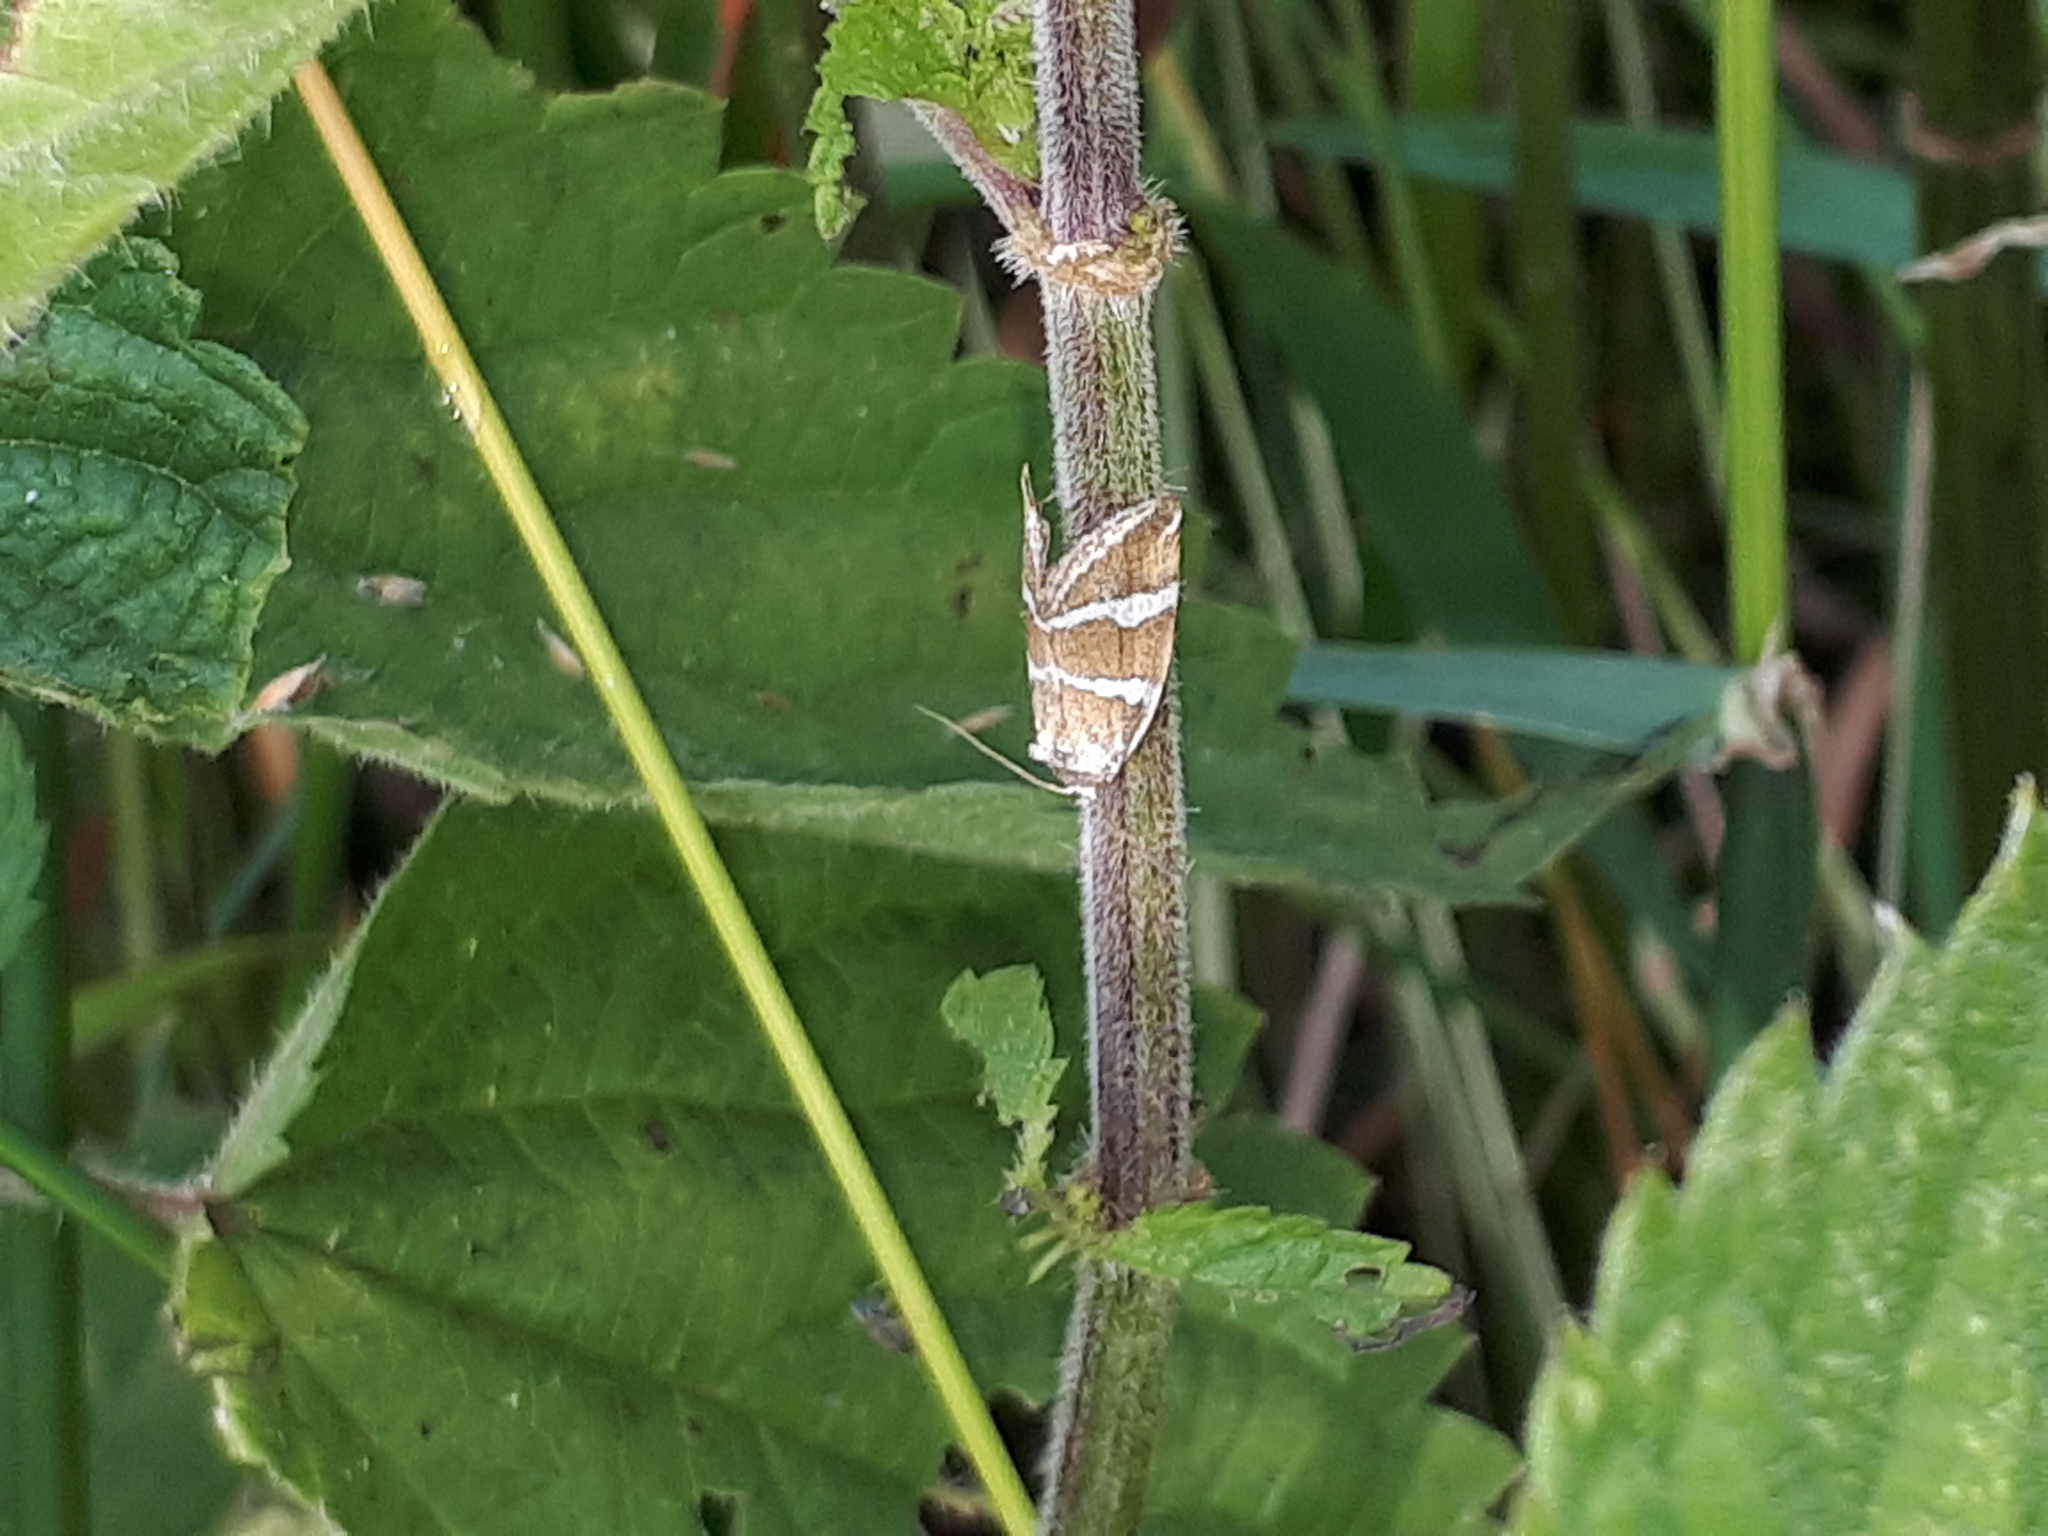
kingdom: Animalia
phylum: Arthropoda
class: Insecta
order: Lepidoptera
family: Noctuidae
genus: Deltote
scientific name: Deltote bankiana
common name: Silver barred
